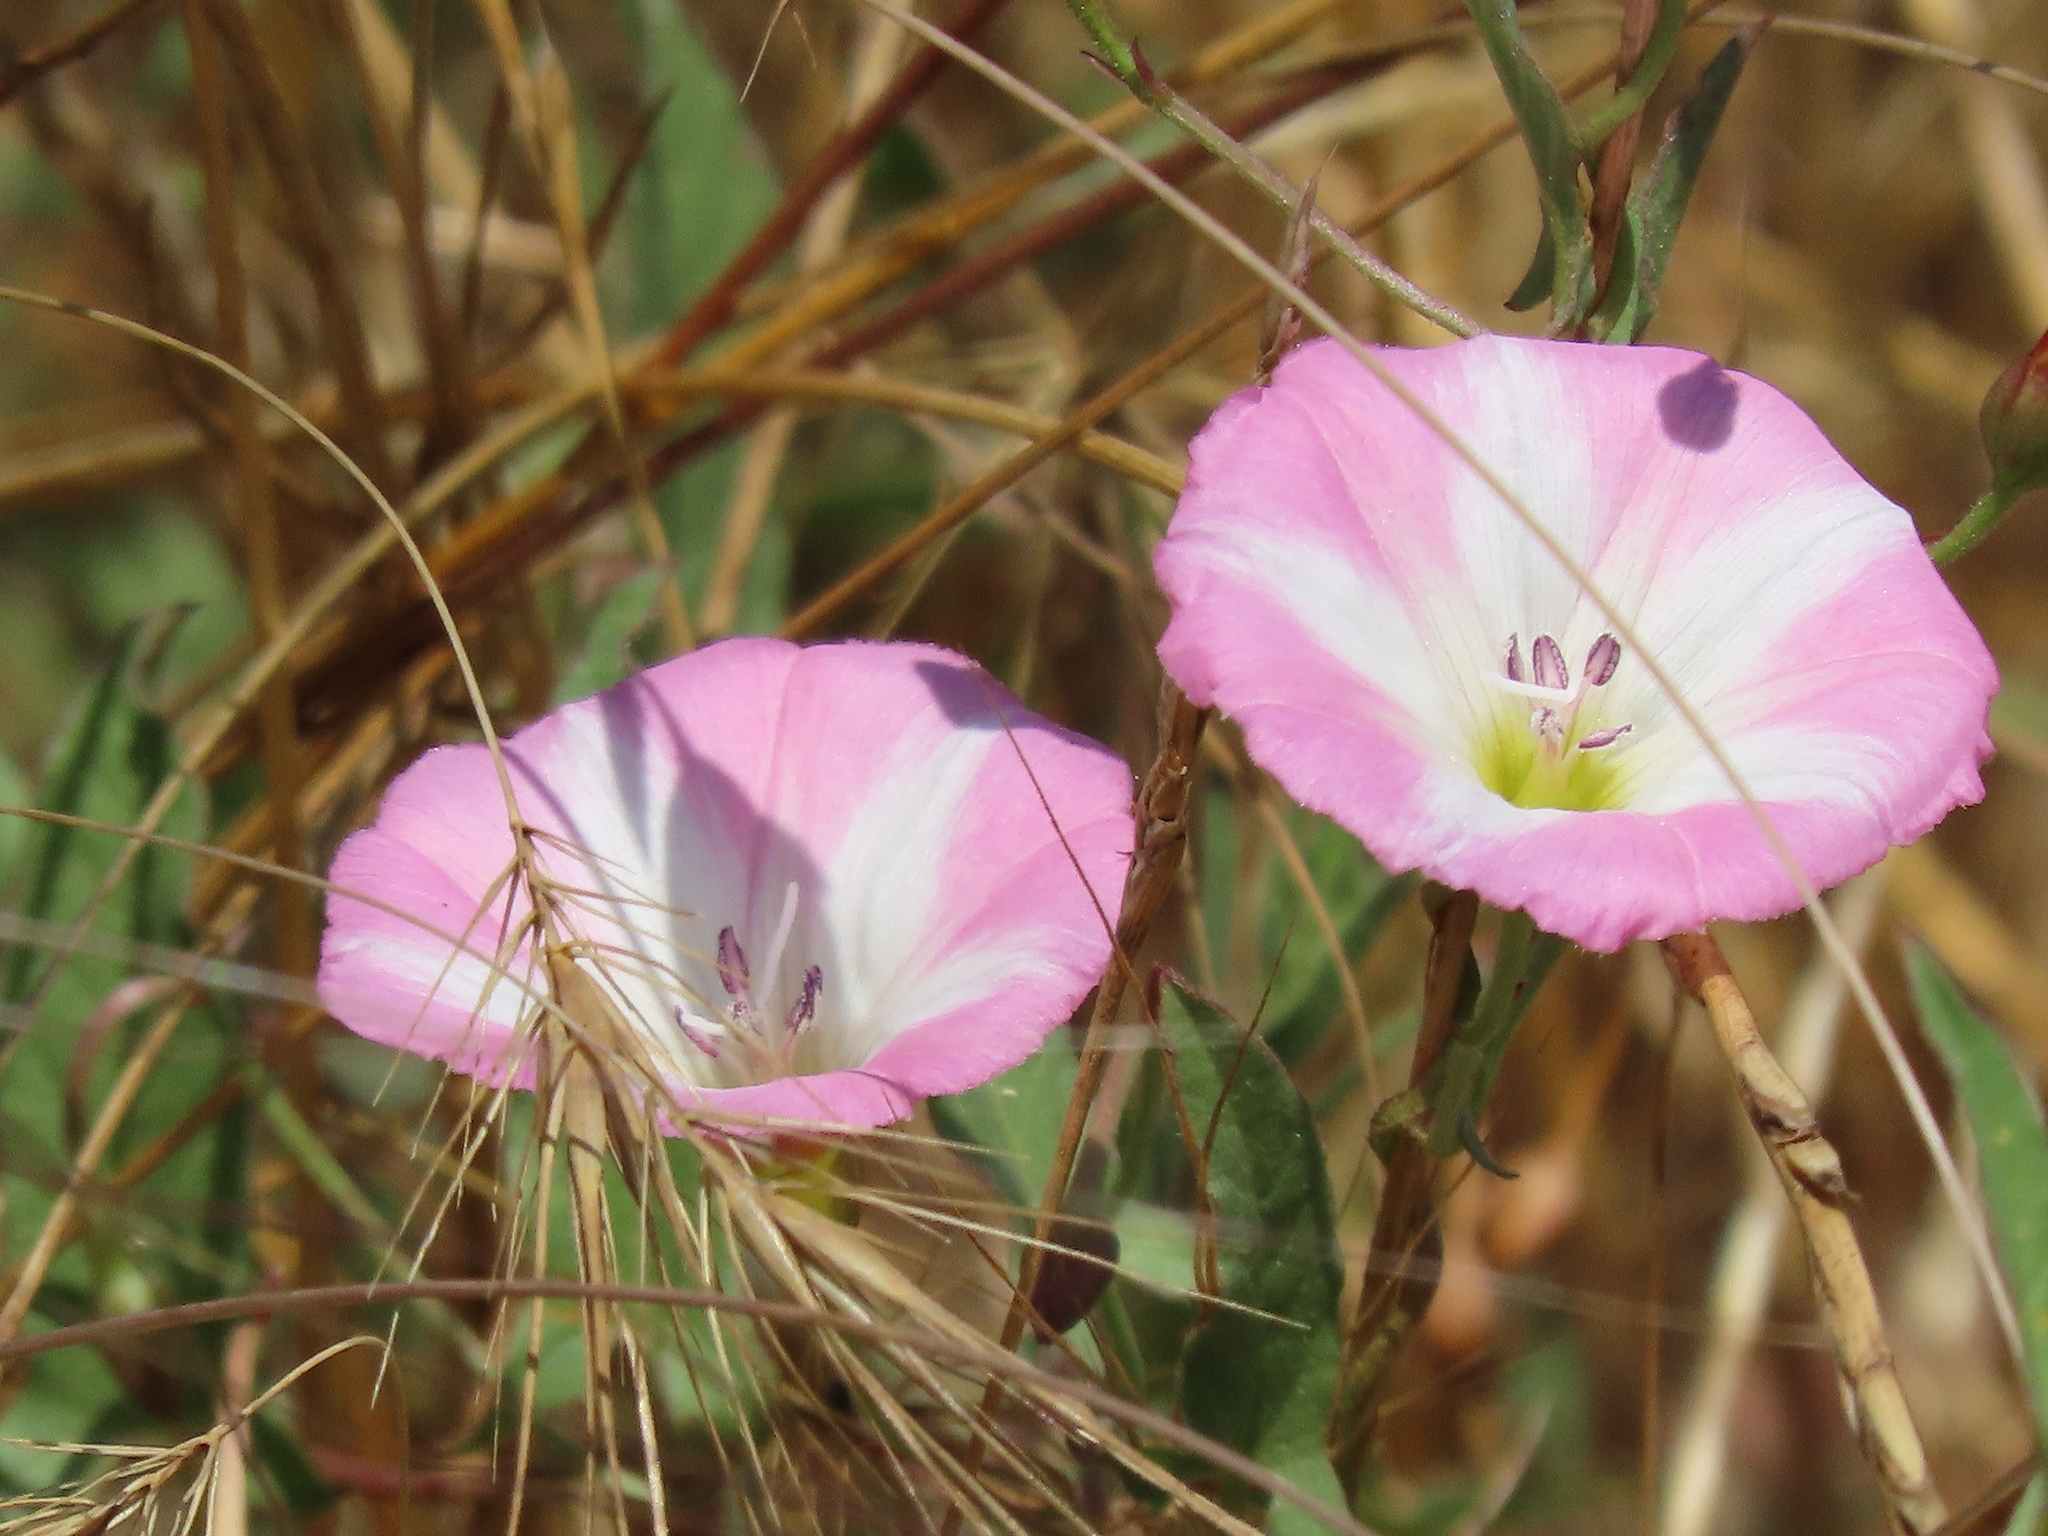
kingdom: Plantae
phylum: Tracheophyta
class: Magnoliopsida
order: Solanales
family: Convolvulaceae
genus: Convolvulus
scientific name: Convolvulus arvensis
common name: Field bindweed
